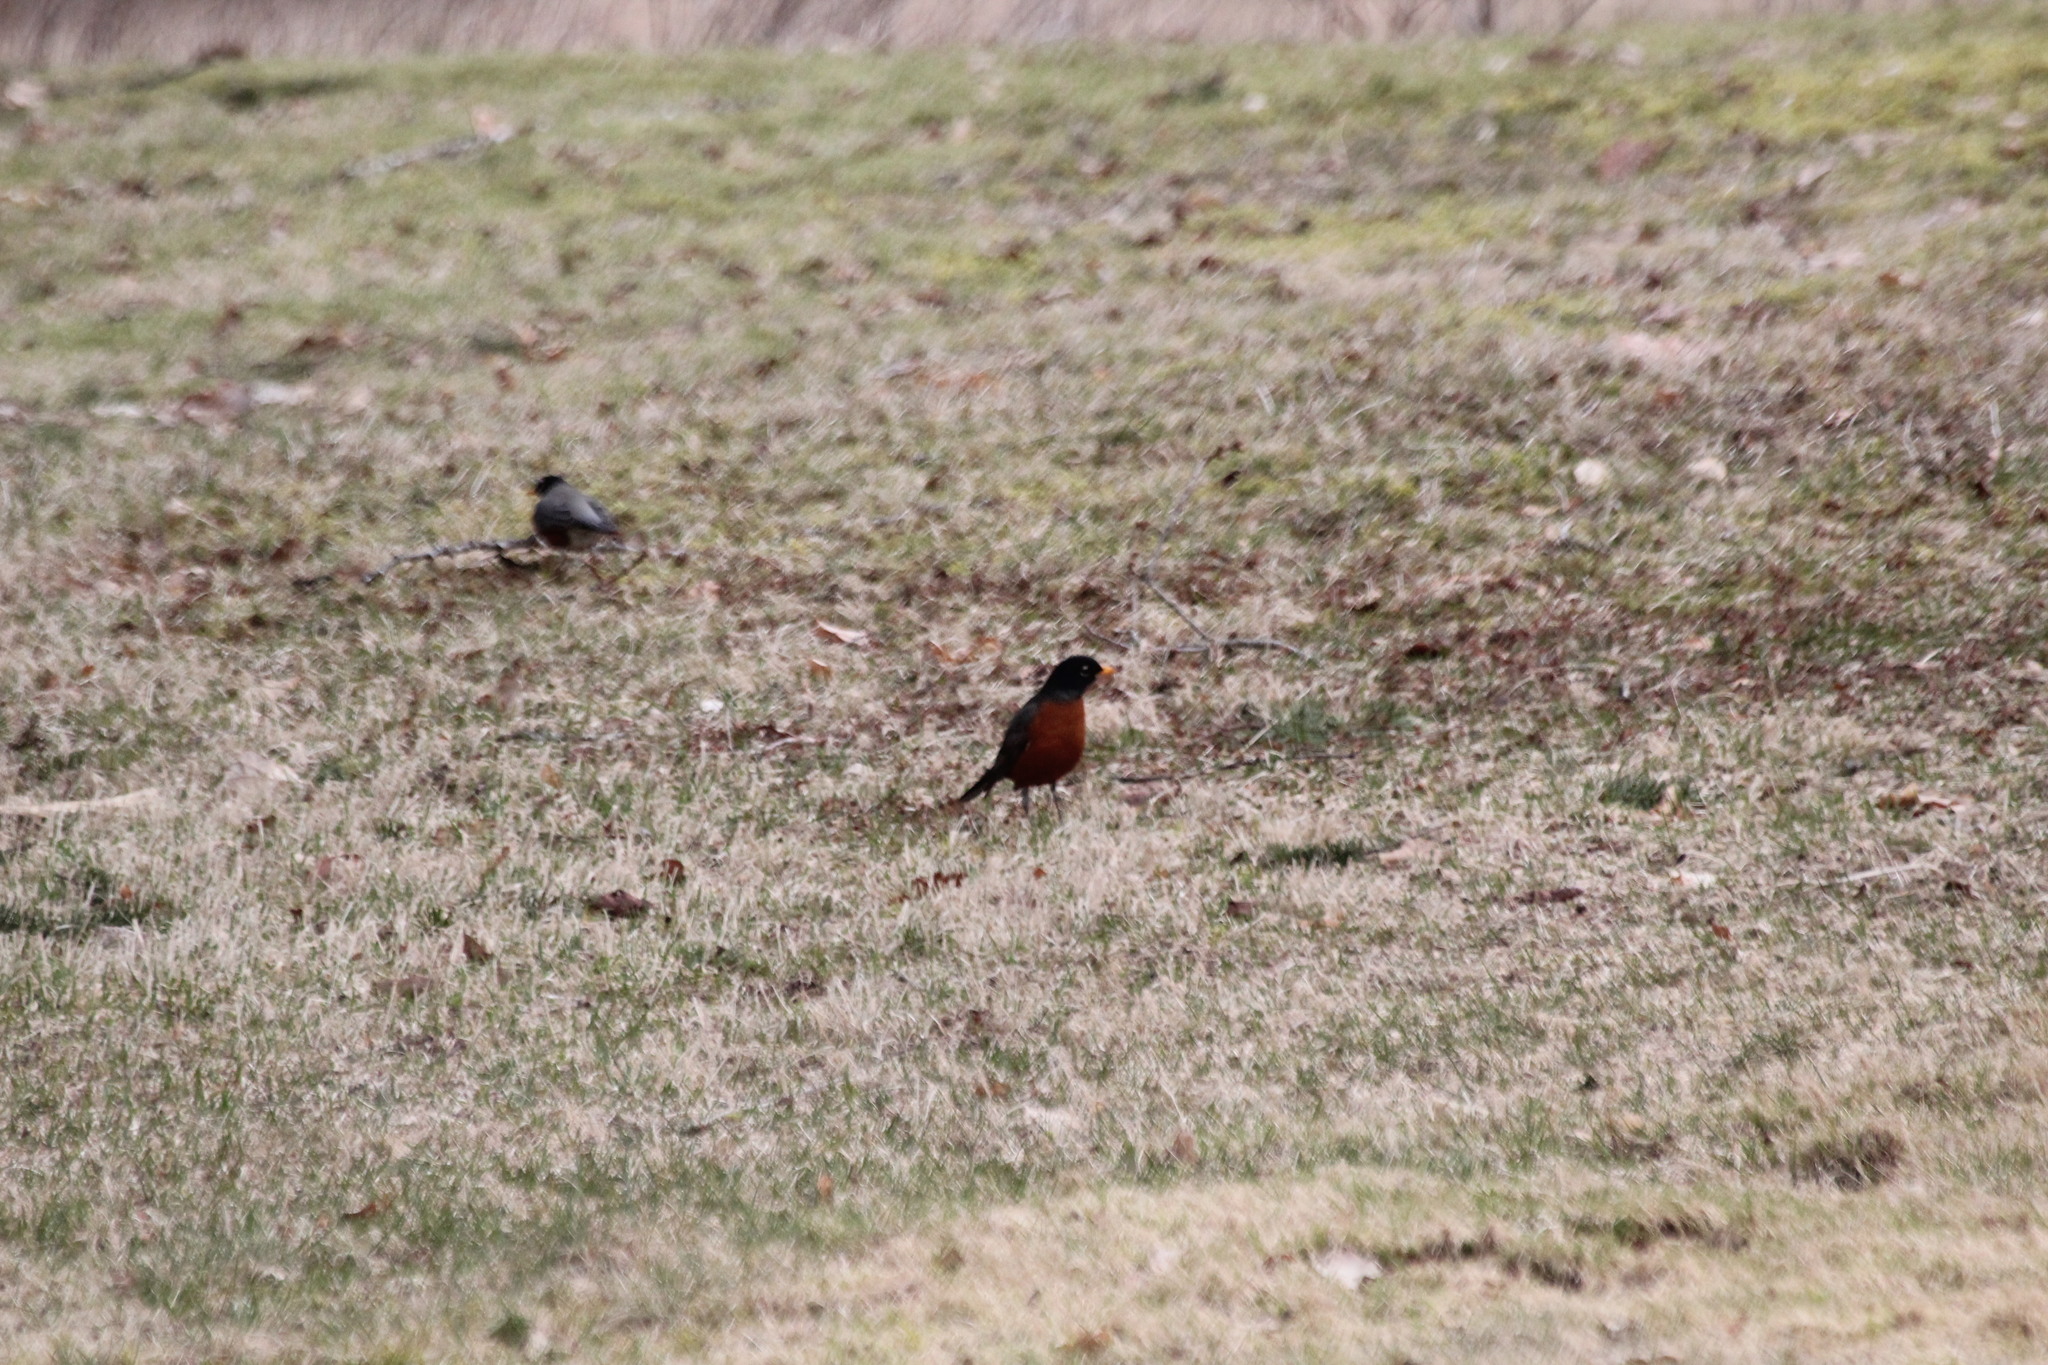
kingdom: Animalia
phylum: Chordata
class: Aves
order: Passeriformes
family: Turdidae
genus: Turdus
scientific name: Turdus migratorius
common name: American robin
